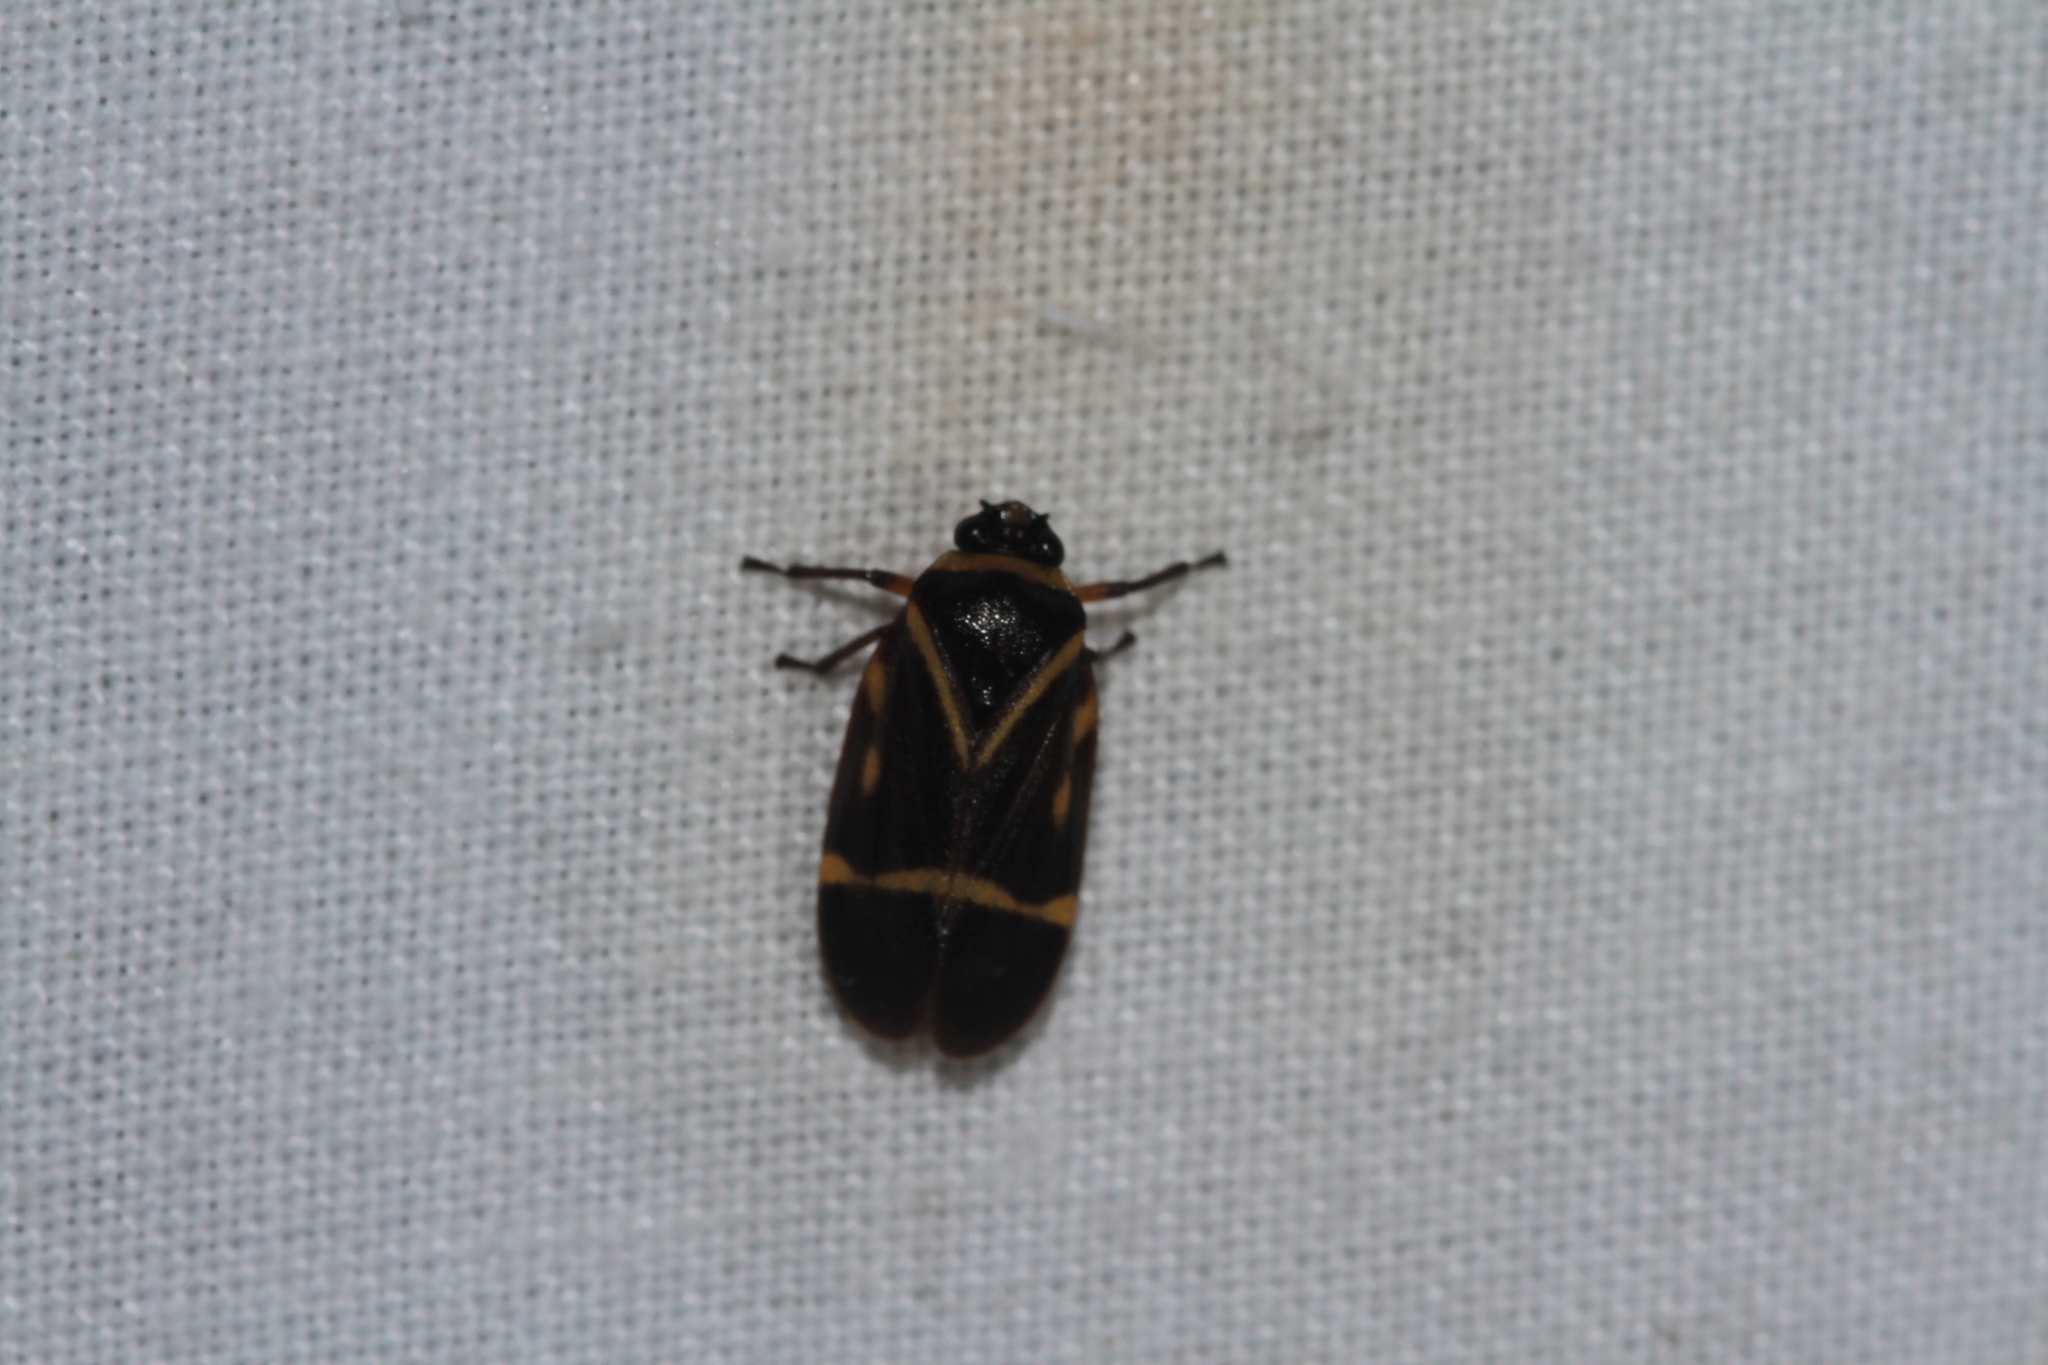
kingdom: Animalia
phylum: Arthropoda
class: Insecta
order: Hemiptera
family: Cercopidae
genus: Maxantonia
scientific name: Maxantonia lineola
